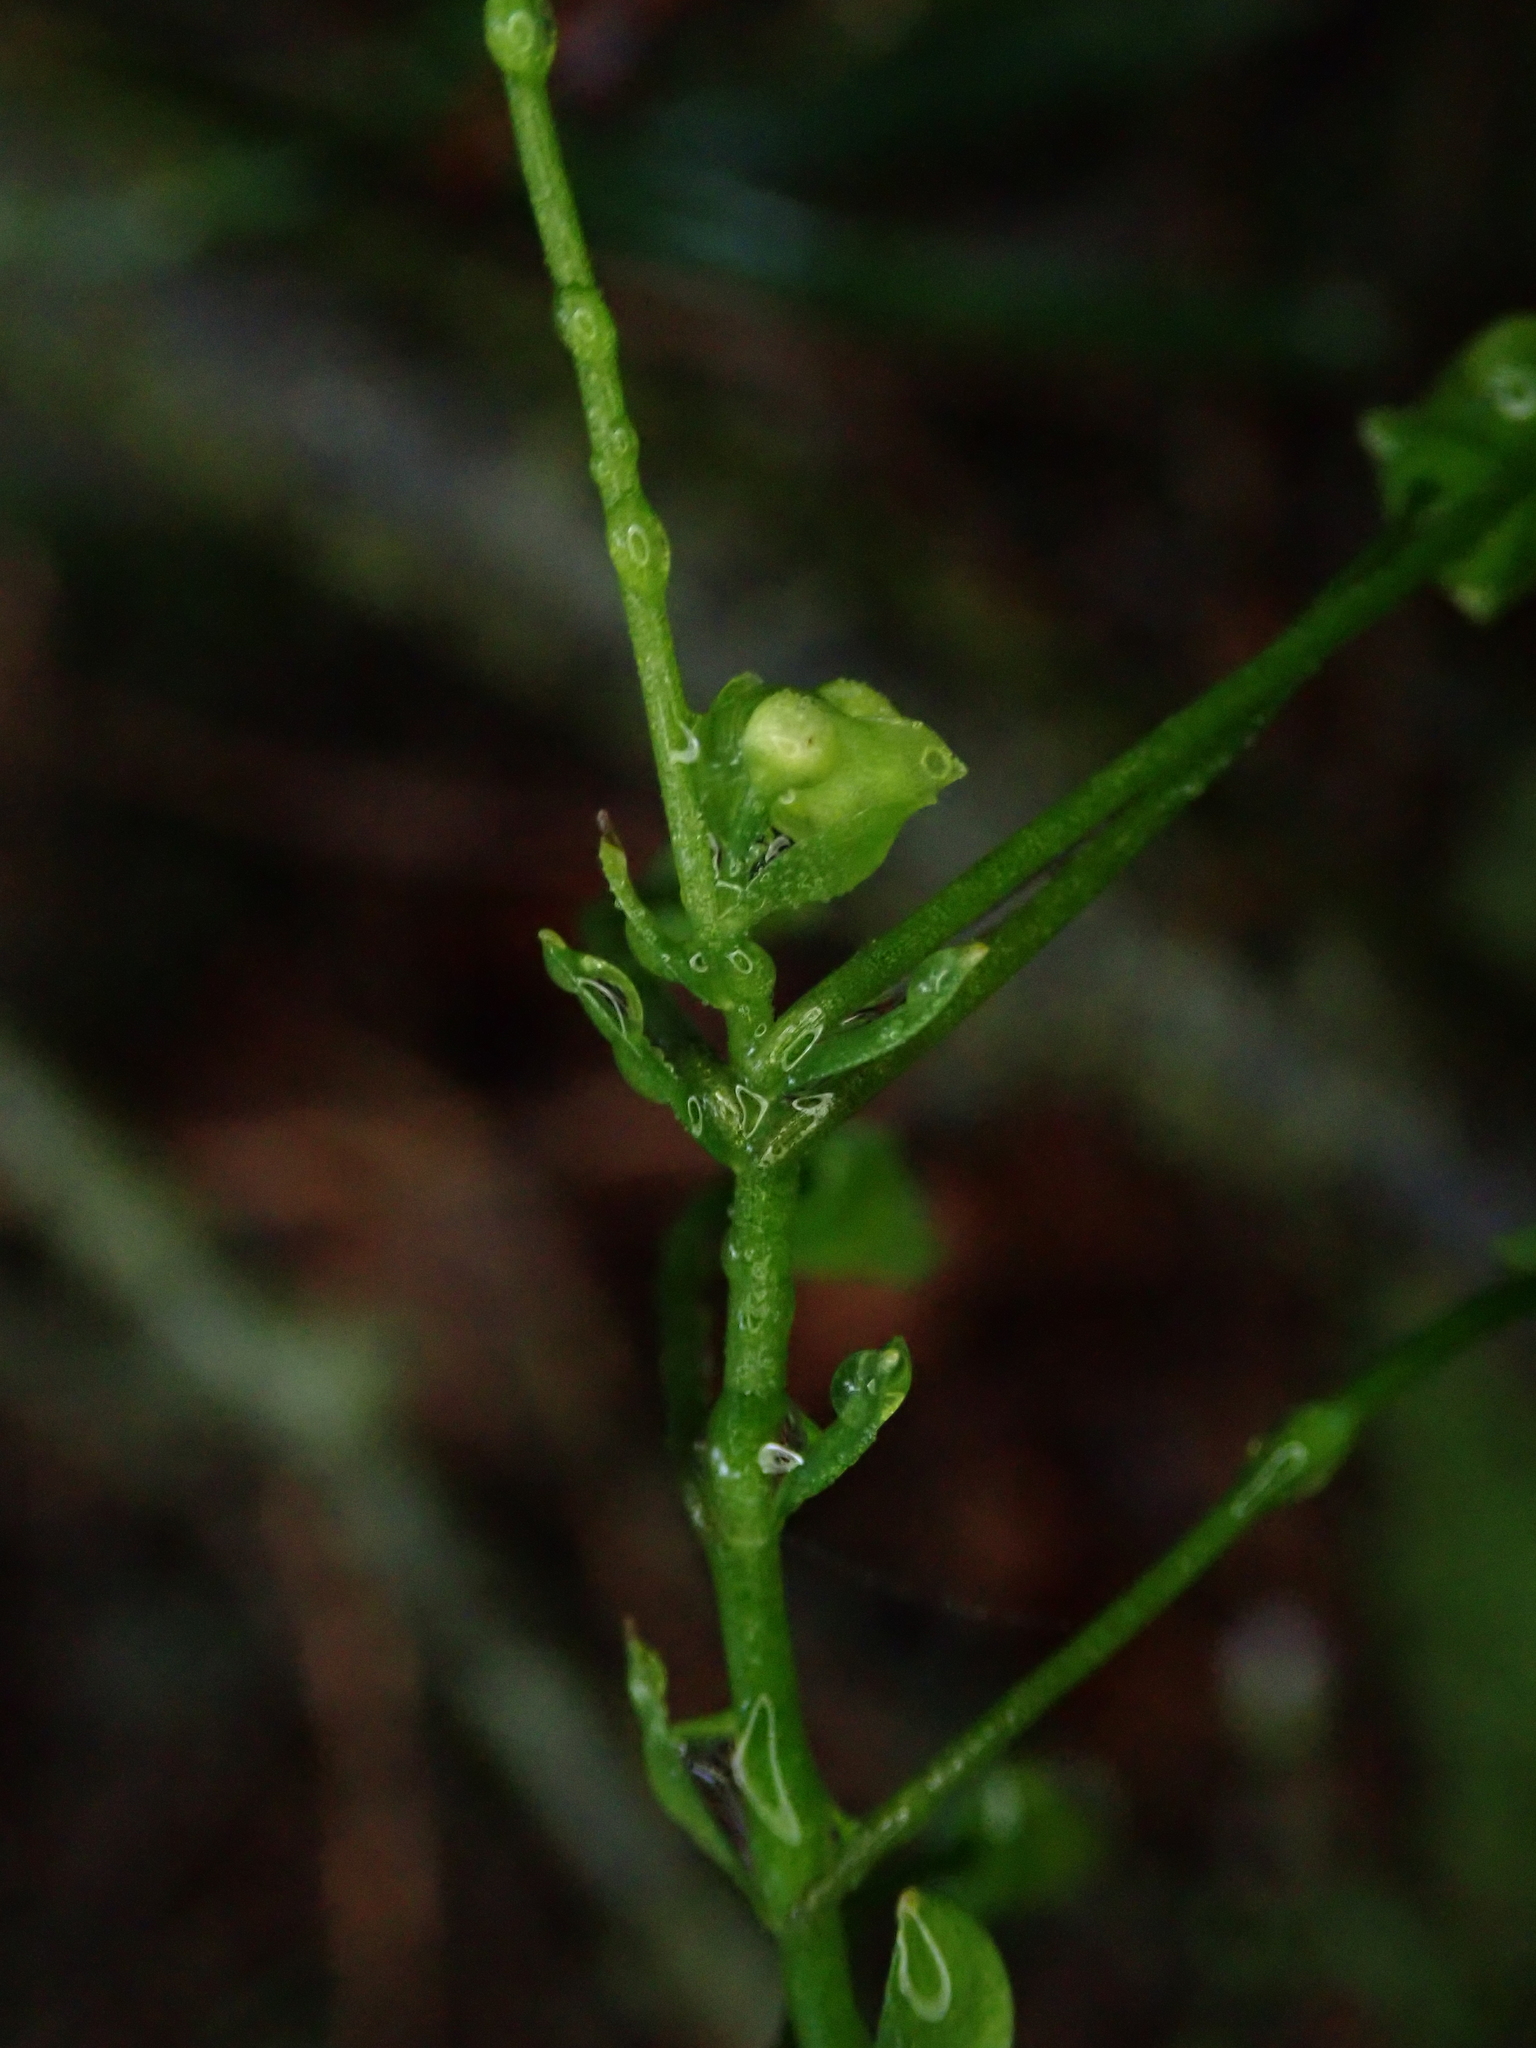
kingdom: Plantae
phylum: Tracheophyta
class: Magnoliopsida
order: Caryophyllales
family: Montiaceae
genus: Claytonia
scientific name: Claytonia sibirica
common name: Pink purslane
